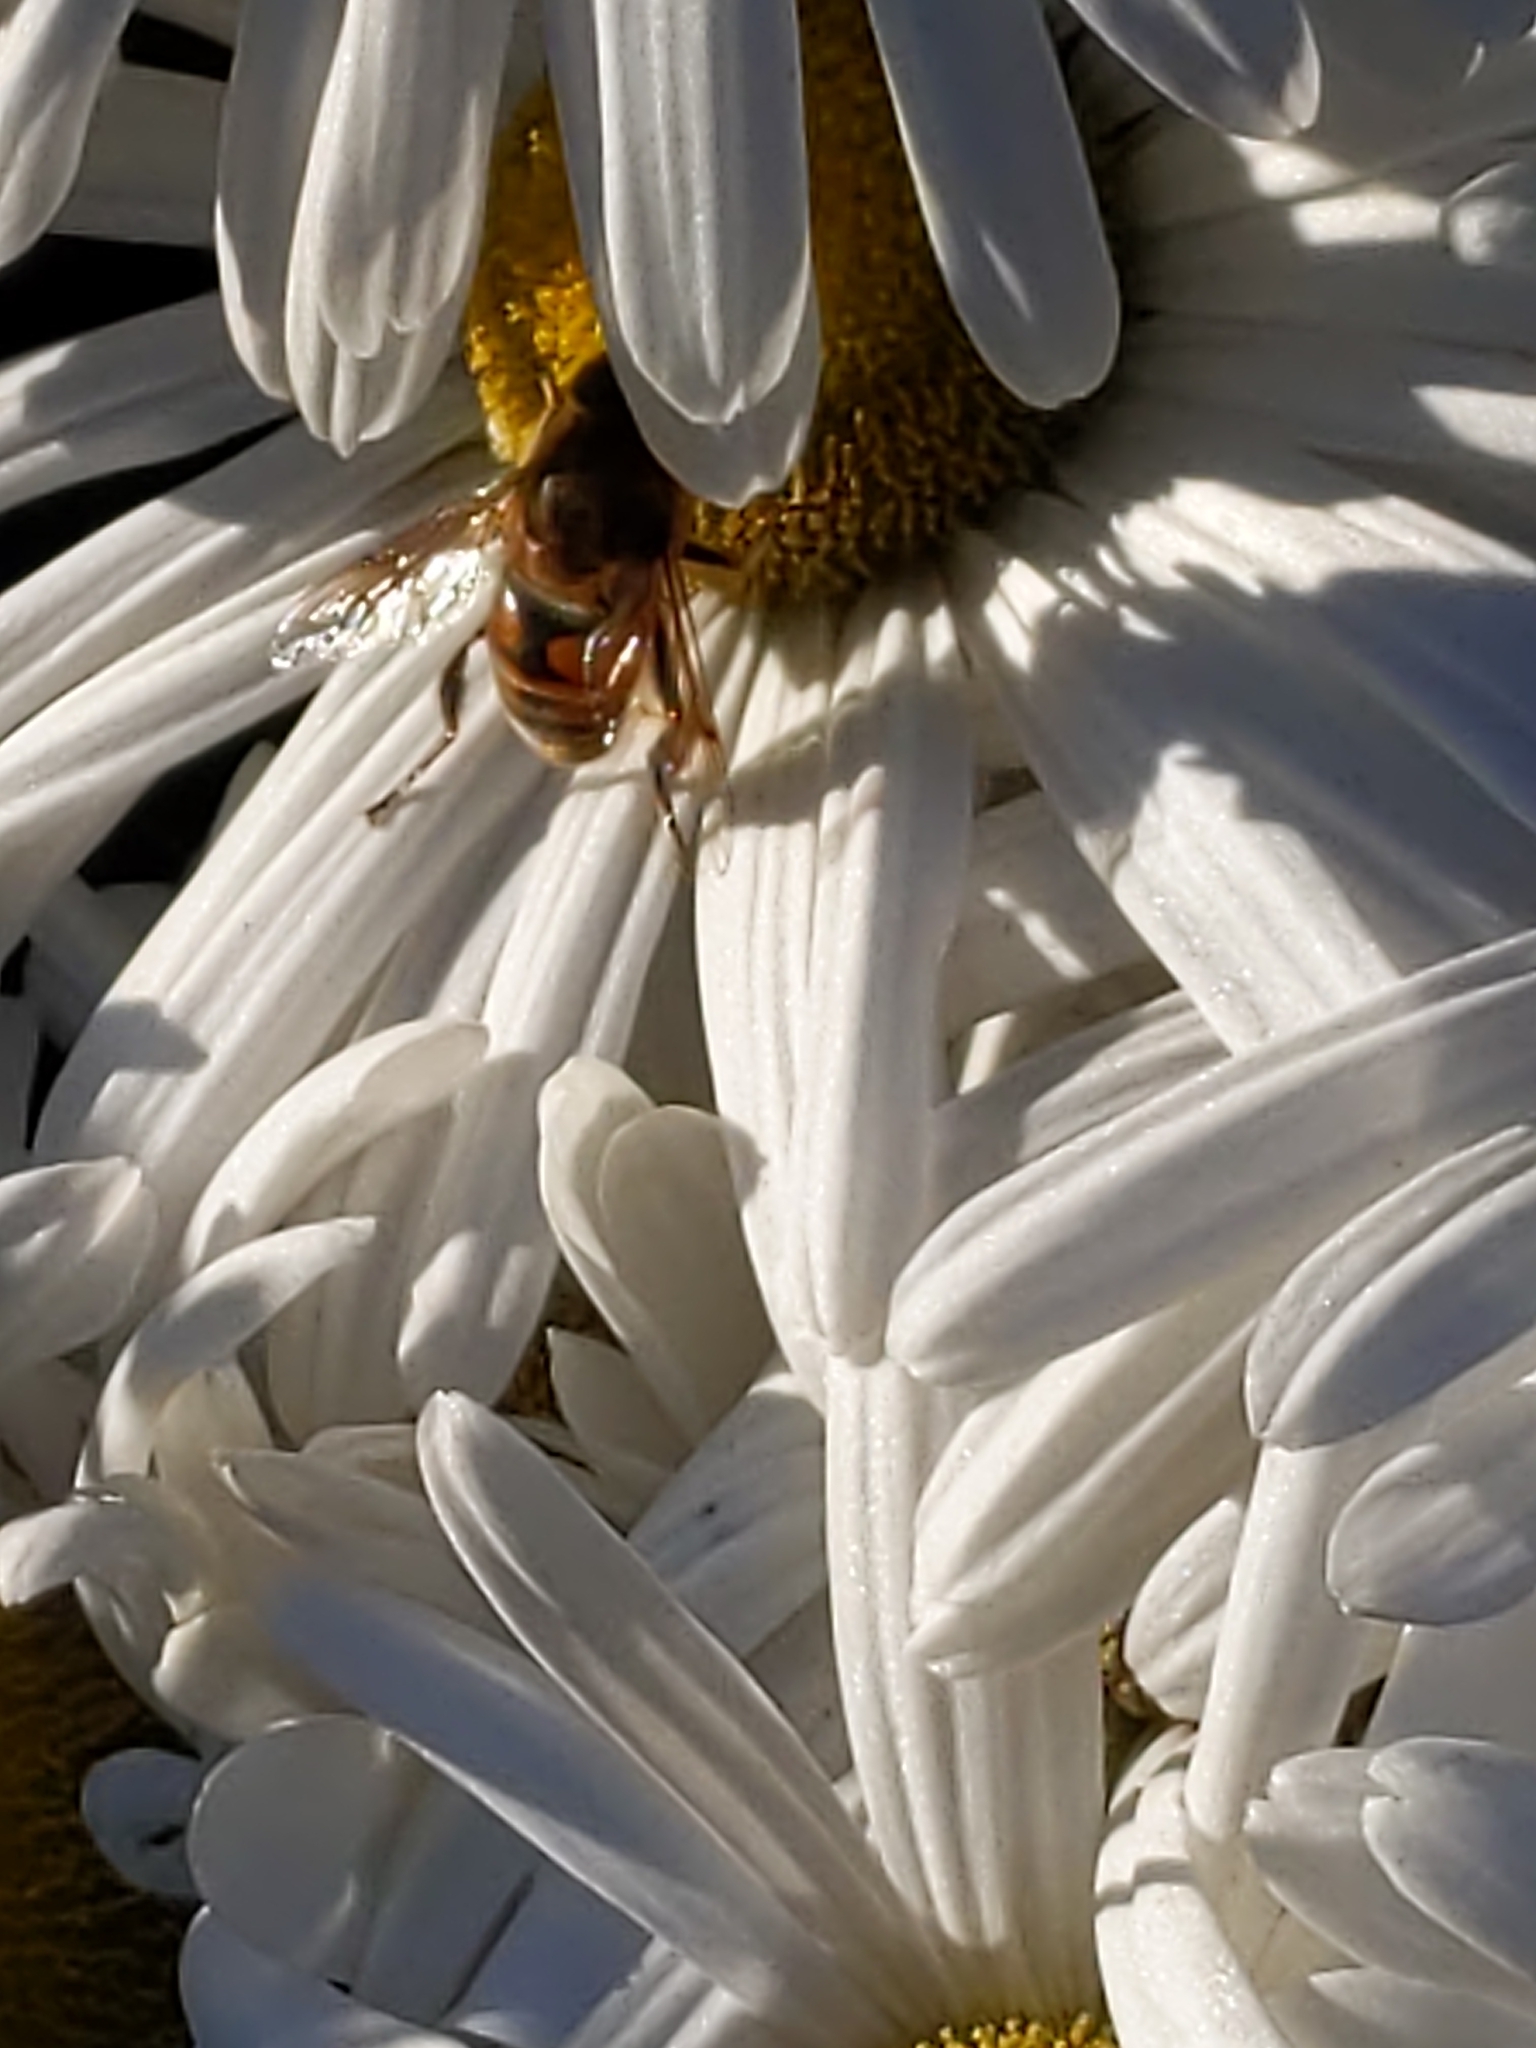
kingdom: Animalia
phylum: Arthropoda
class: Insecta
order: Diptera
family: Syrphidae
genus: Eristalis
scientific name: Eristalis tenax
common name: Drone fly
